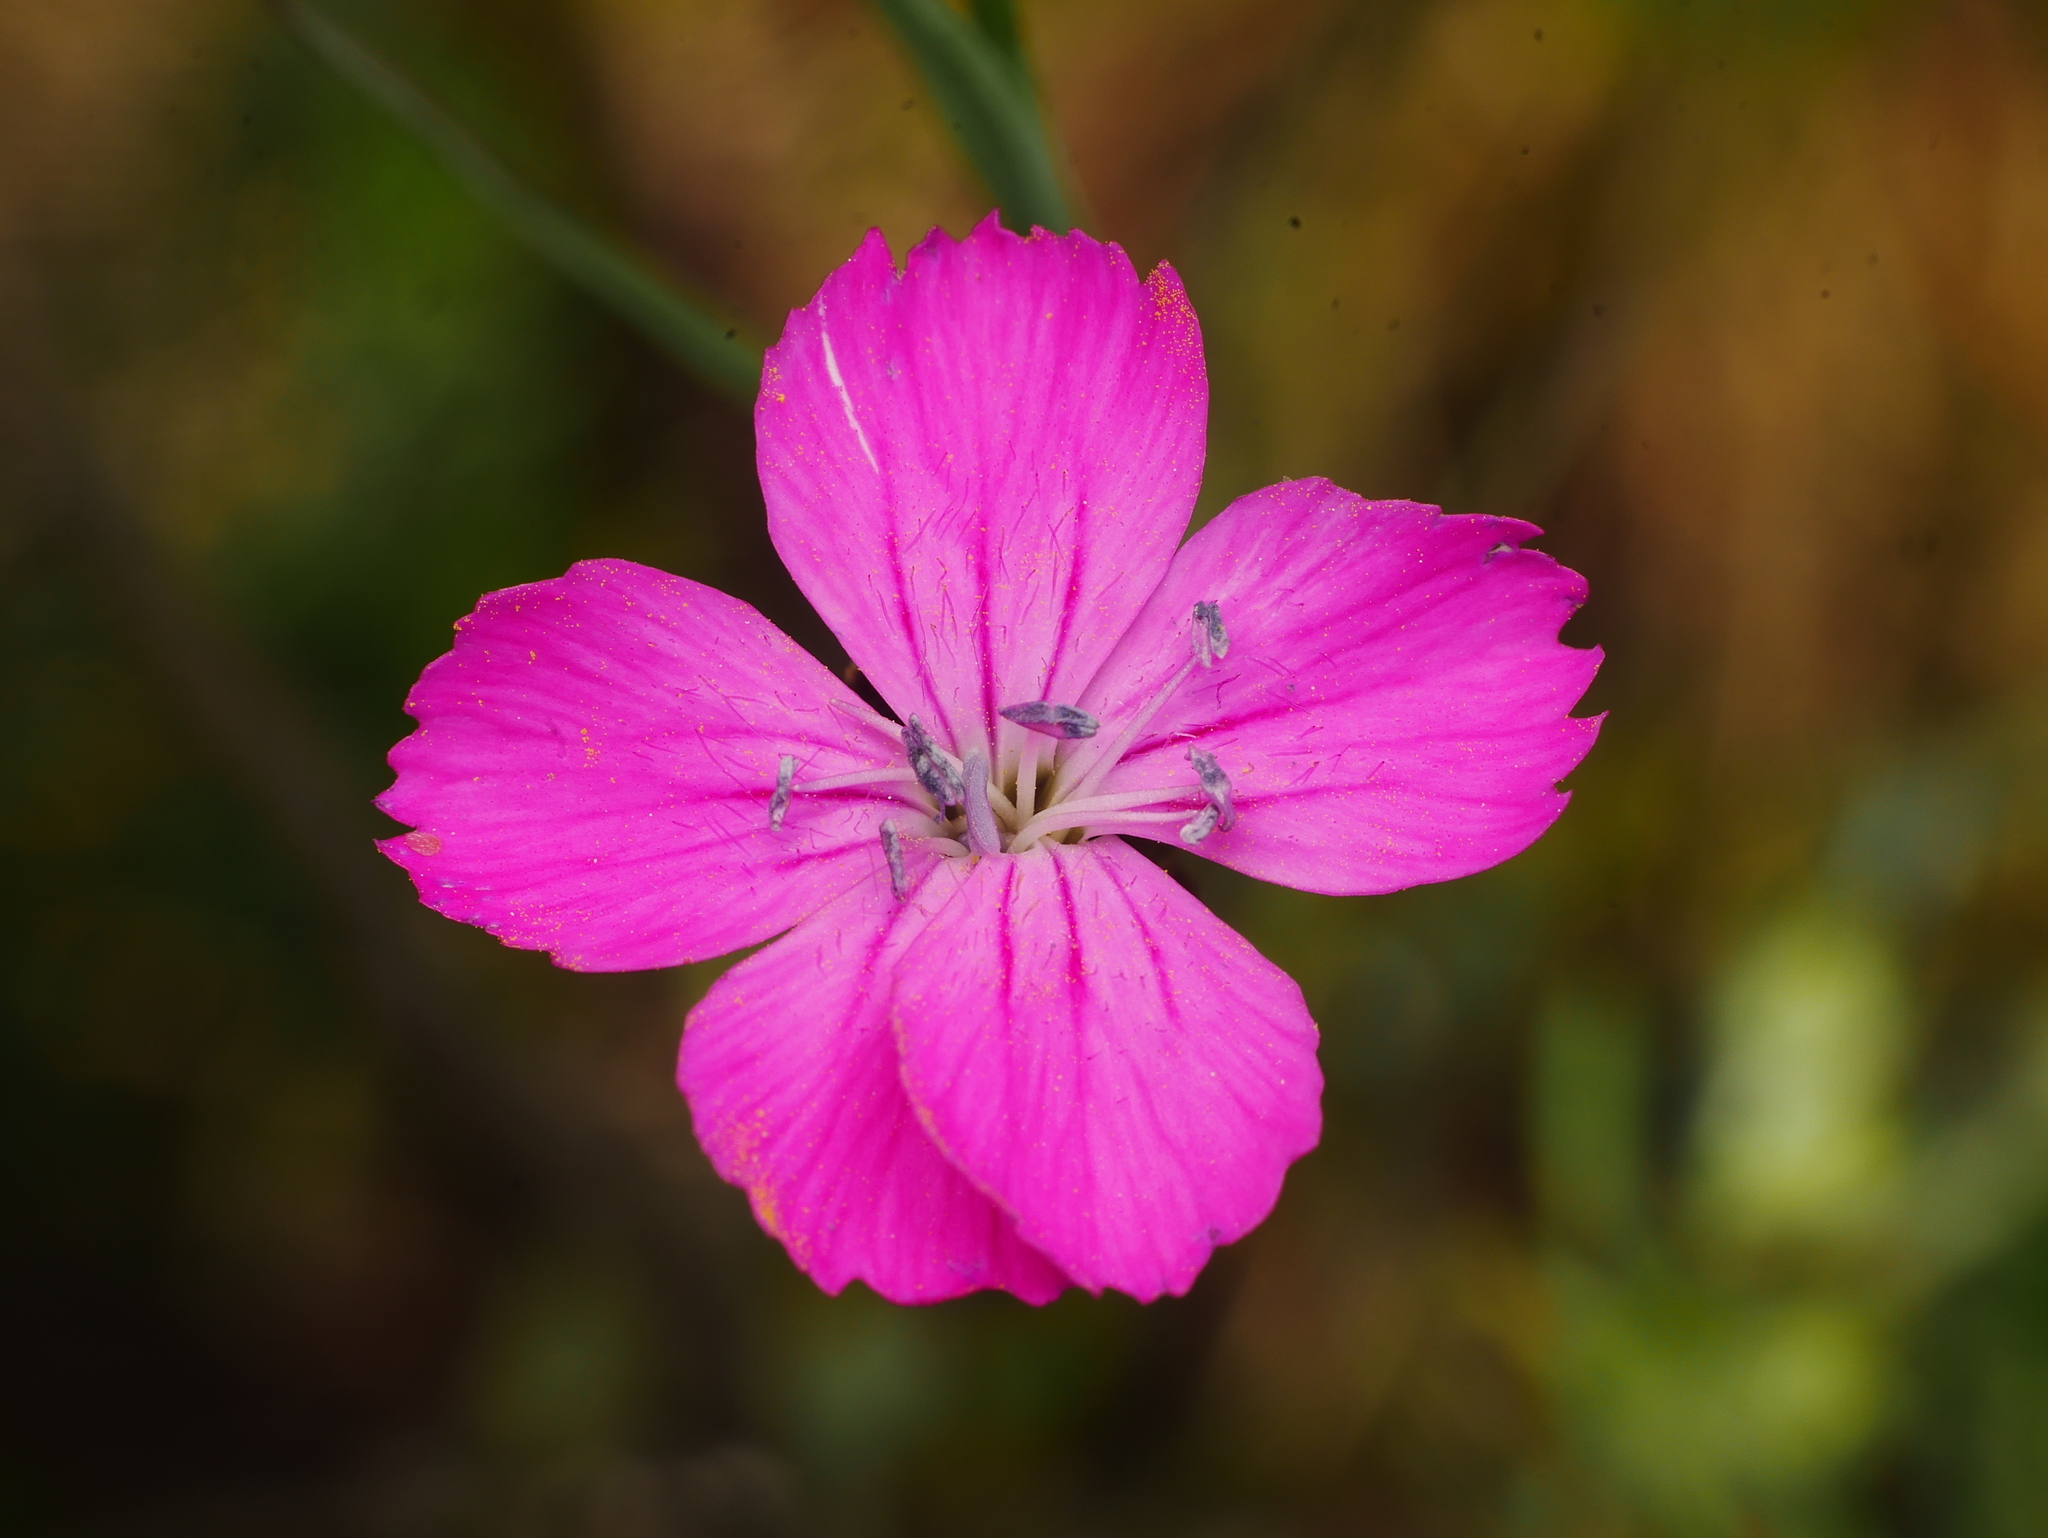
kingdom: Plantae
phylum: Tracheophyta
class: Magnoliopsida
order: Caryophyllales
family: Caryophyllaceae
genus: Dianthus
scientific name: Dianthus carthusianorum
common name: Carthusian pink
